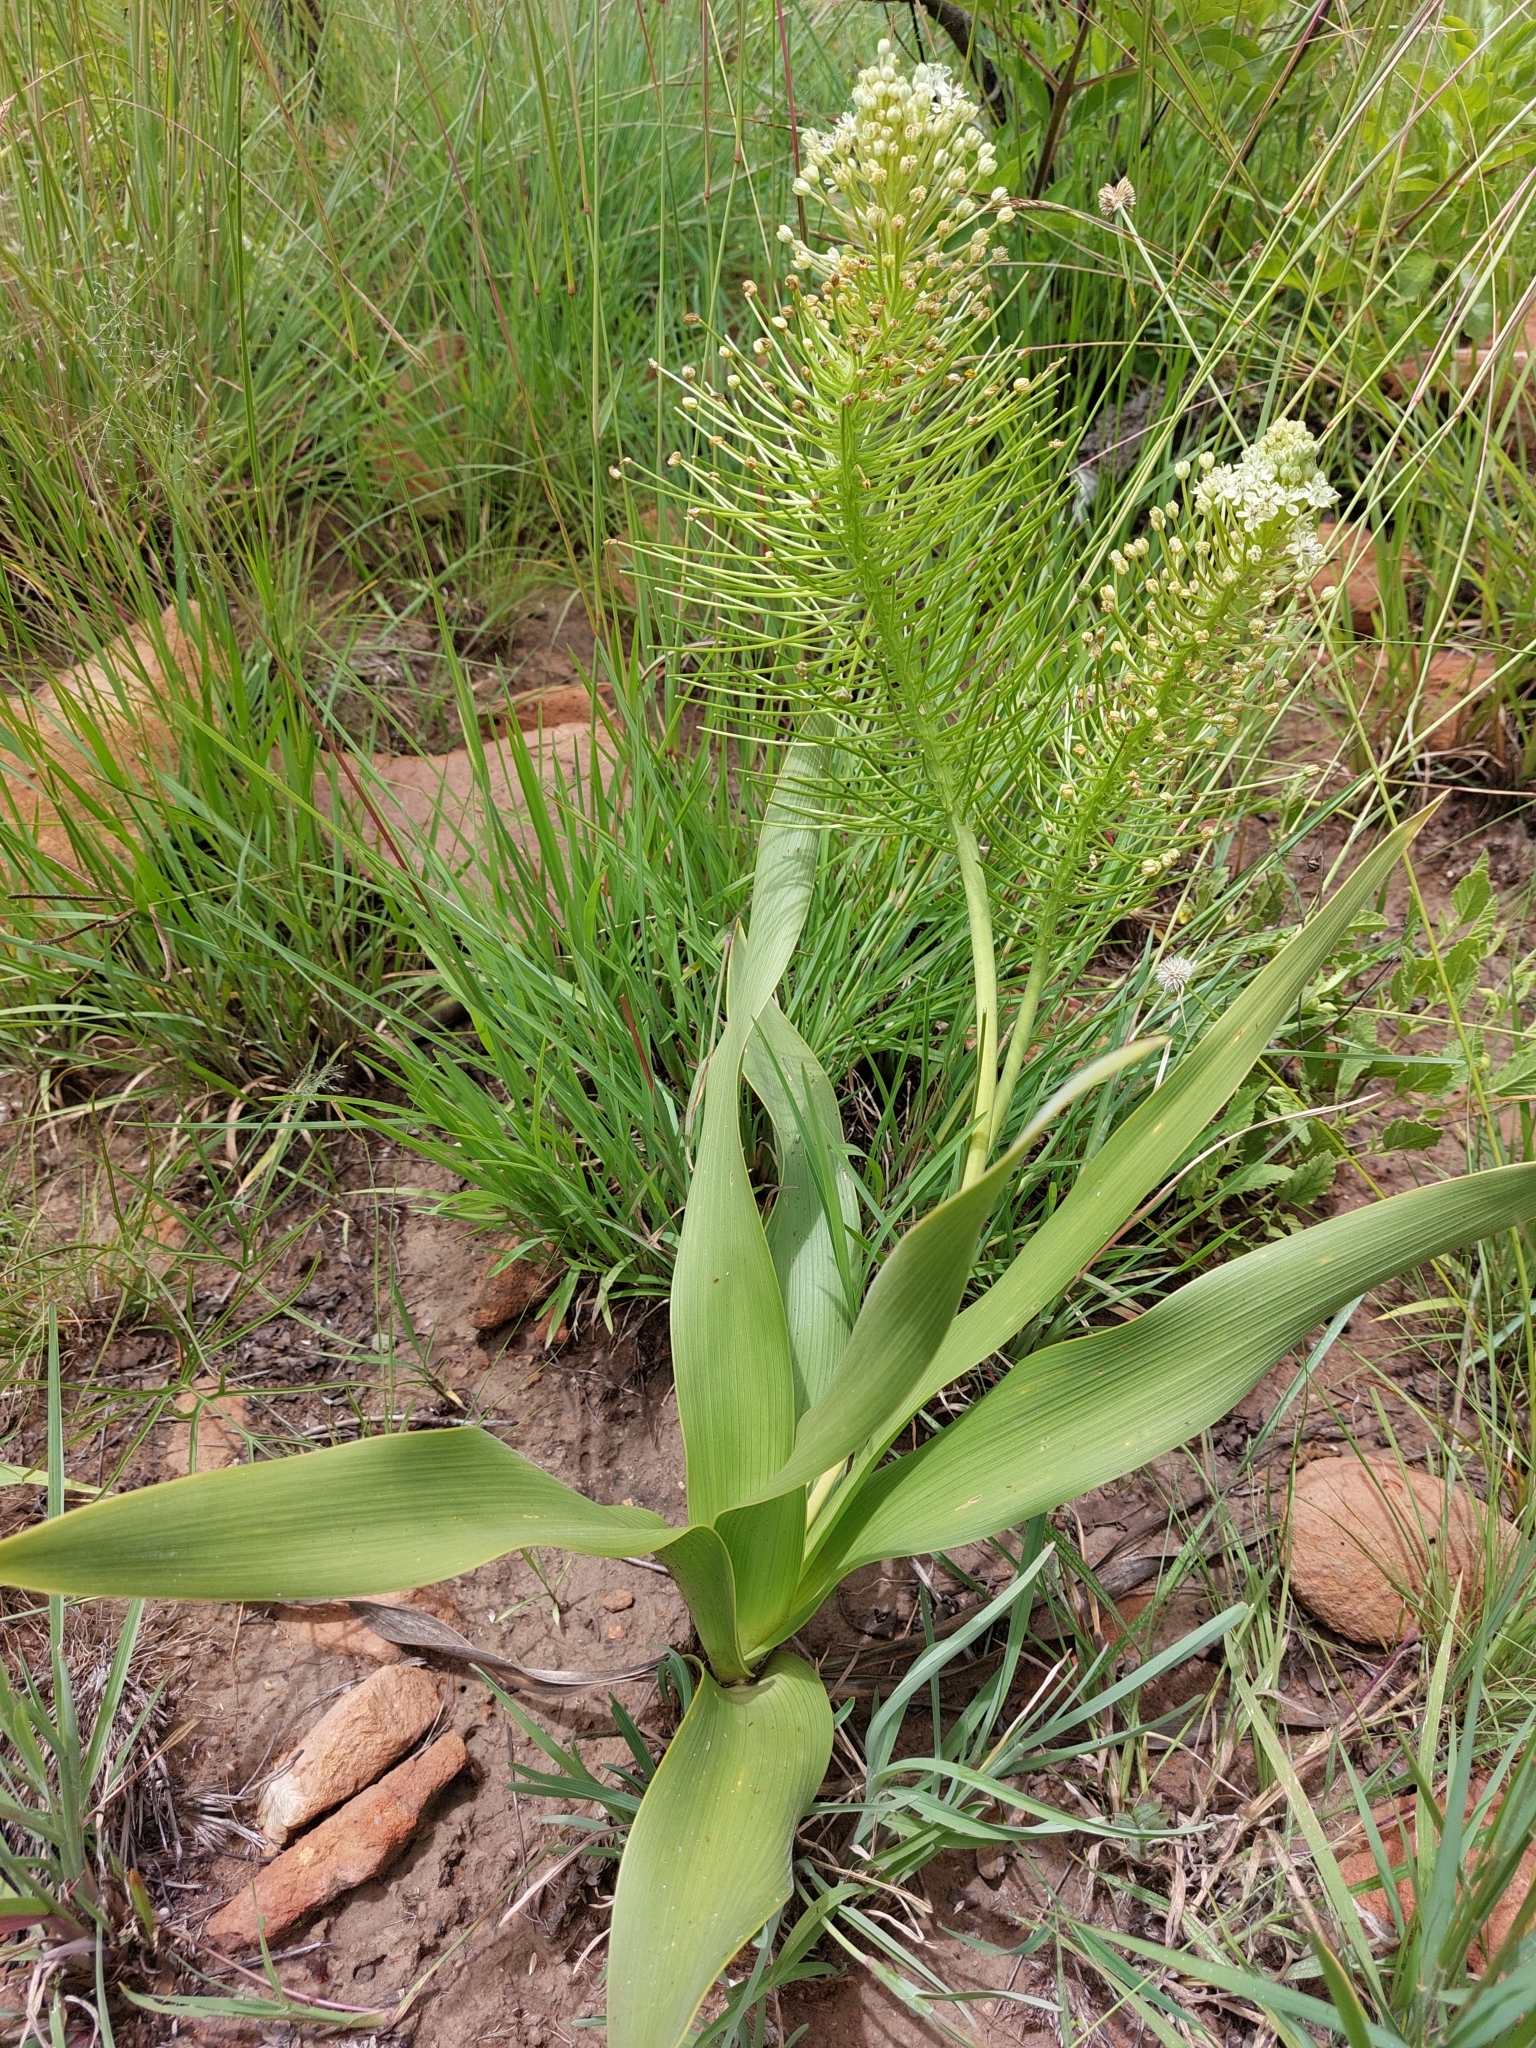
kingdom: Plantae
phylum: Tracheophyta
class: Liliopsida
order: Asparagales
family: Asparagaceae
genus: Schizocarphus
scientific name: Schizocarphus nervosus
